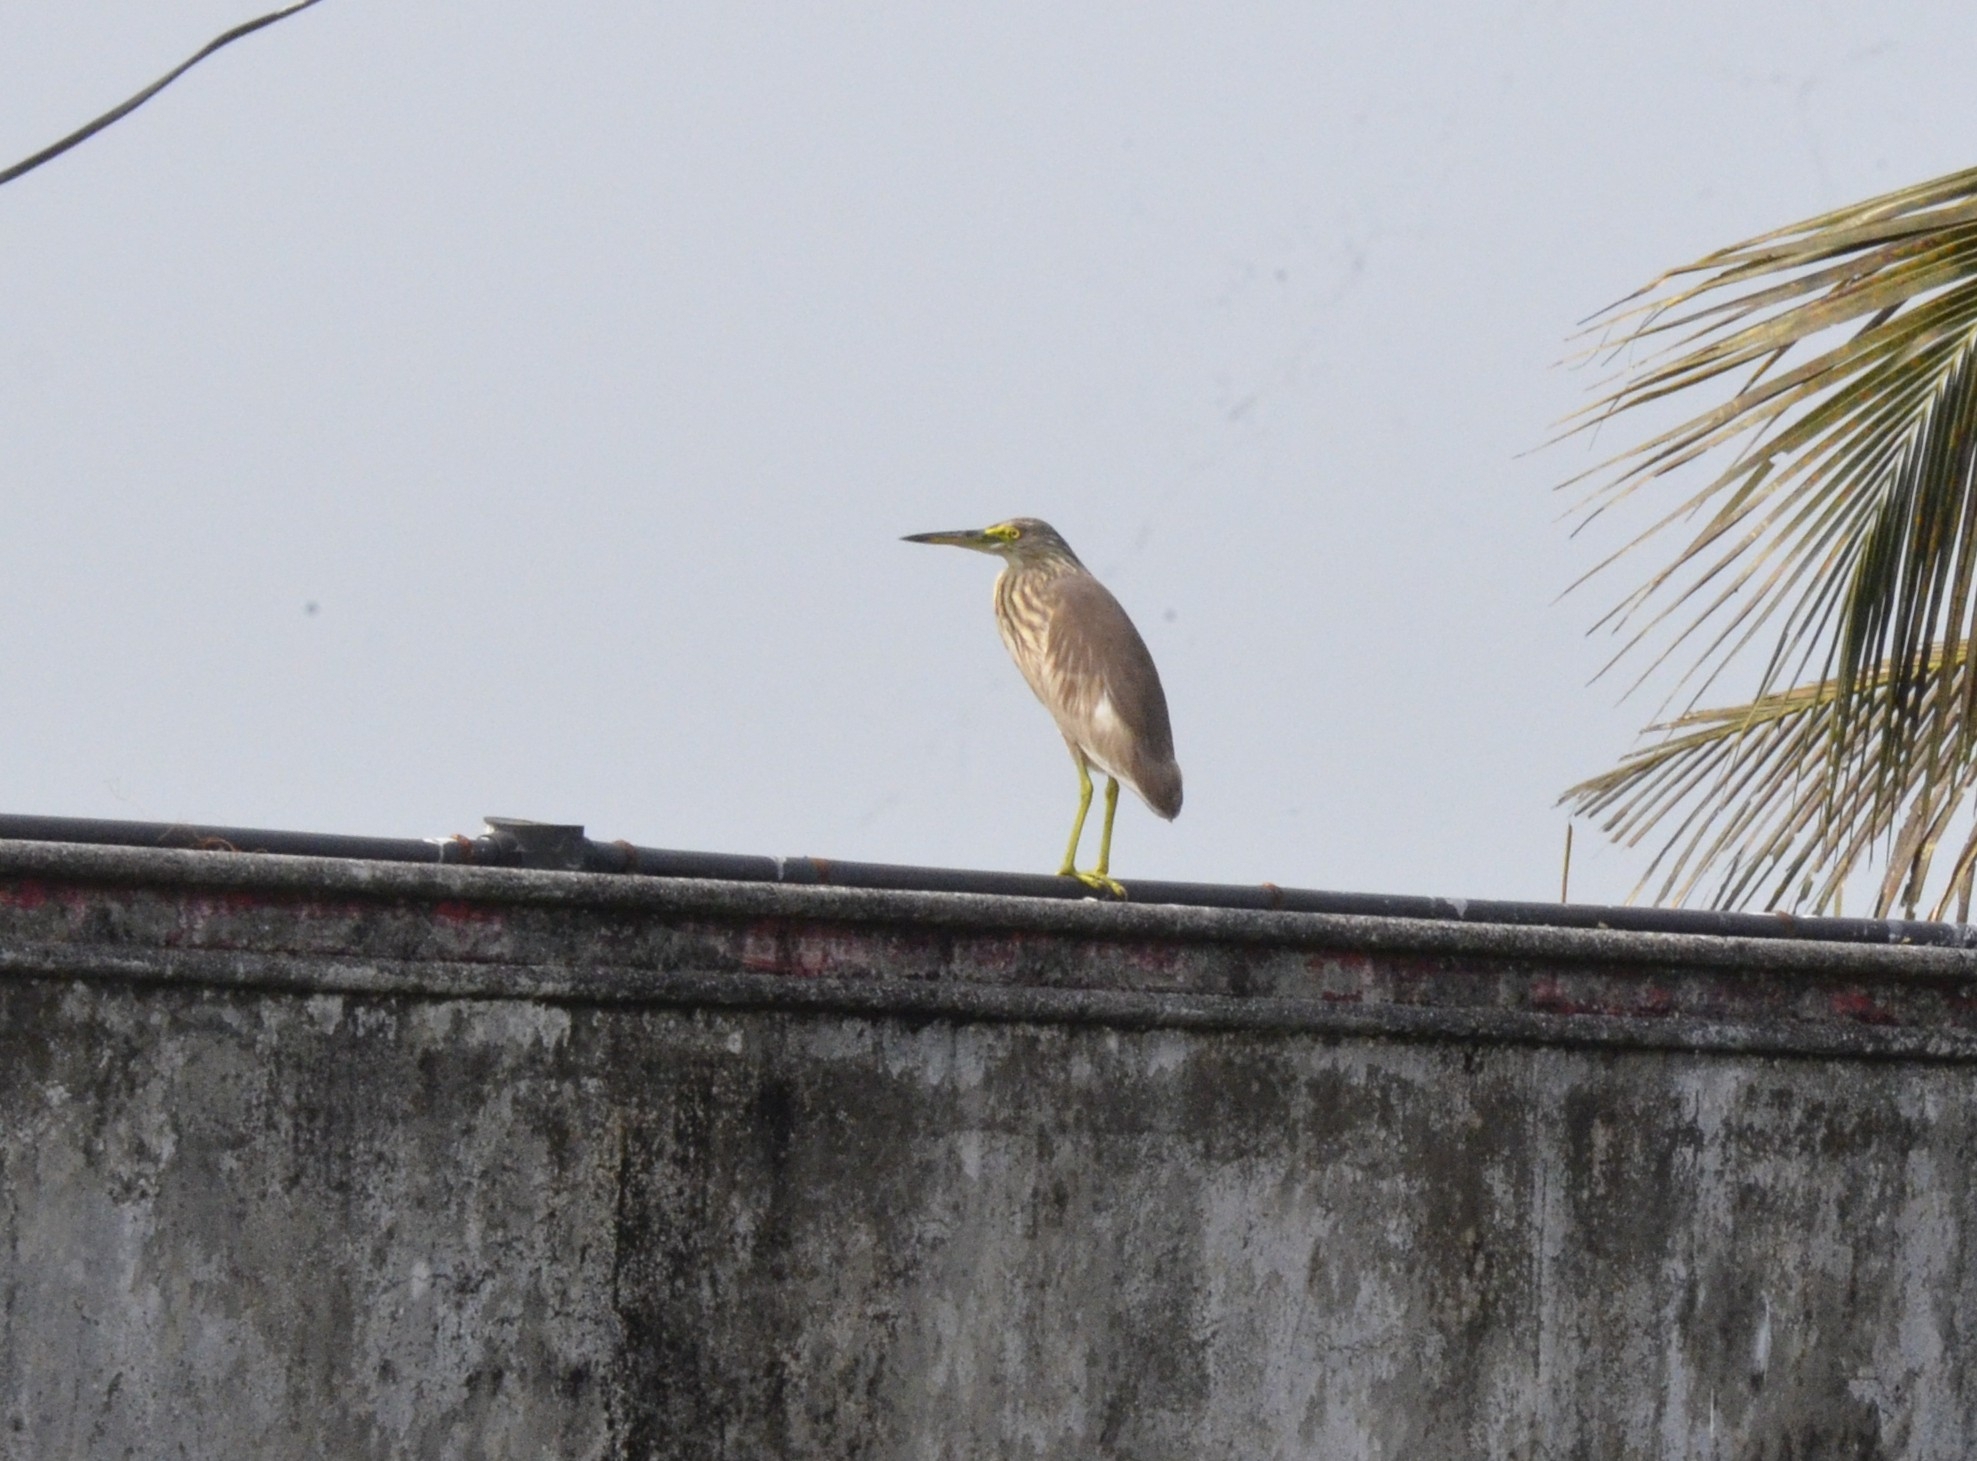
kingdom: Animalia
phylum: Chordata
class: Aves
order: Pelecaniformes
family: Ardeidae
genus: Ardeola
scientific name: Ardeola grayii
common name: Indian pond heron
